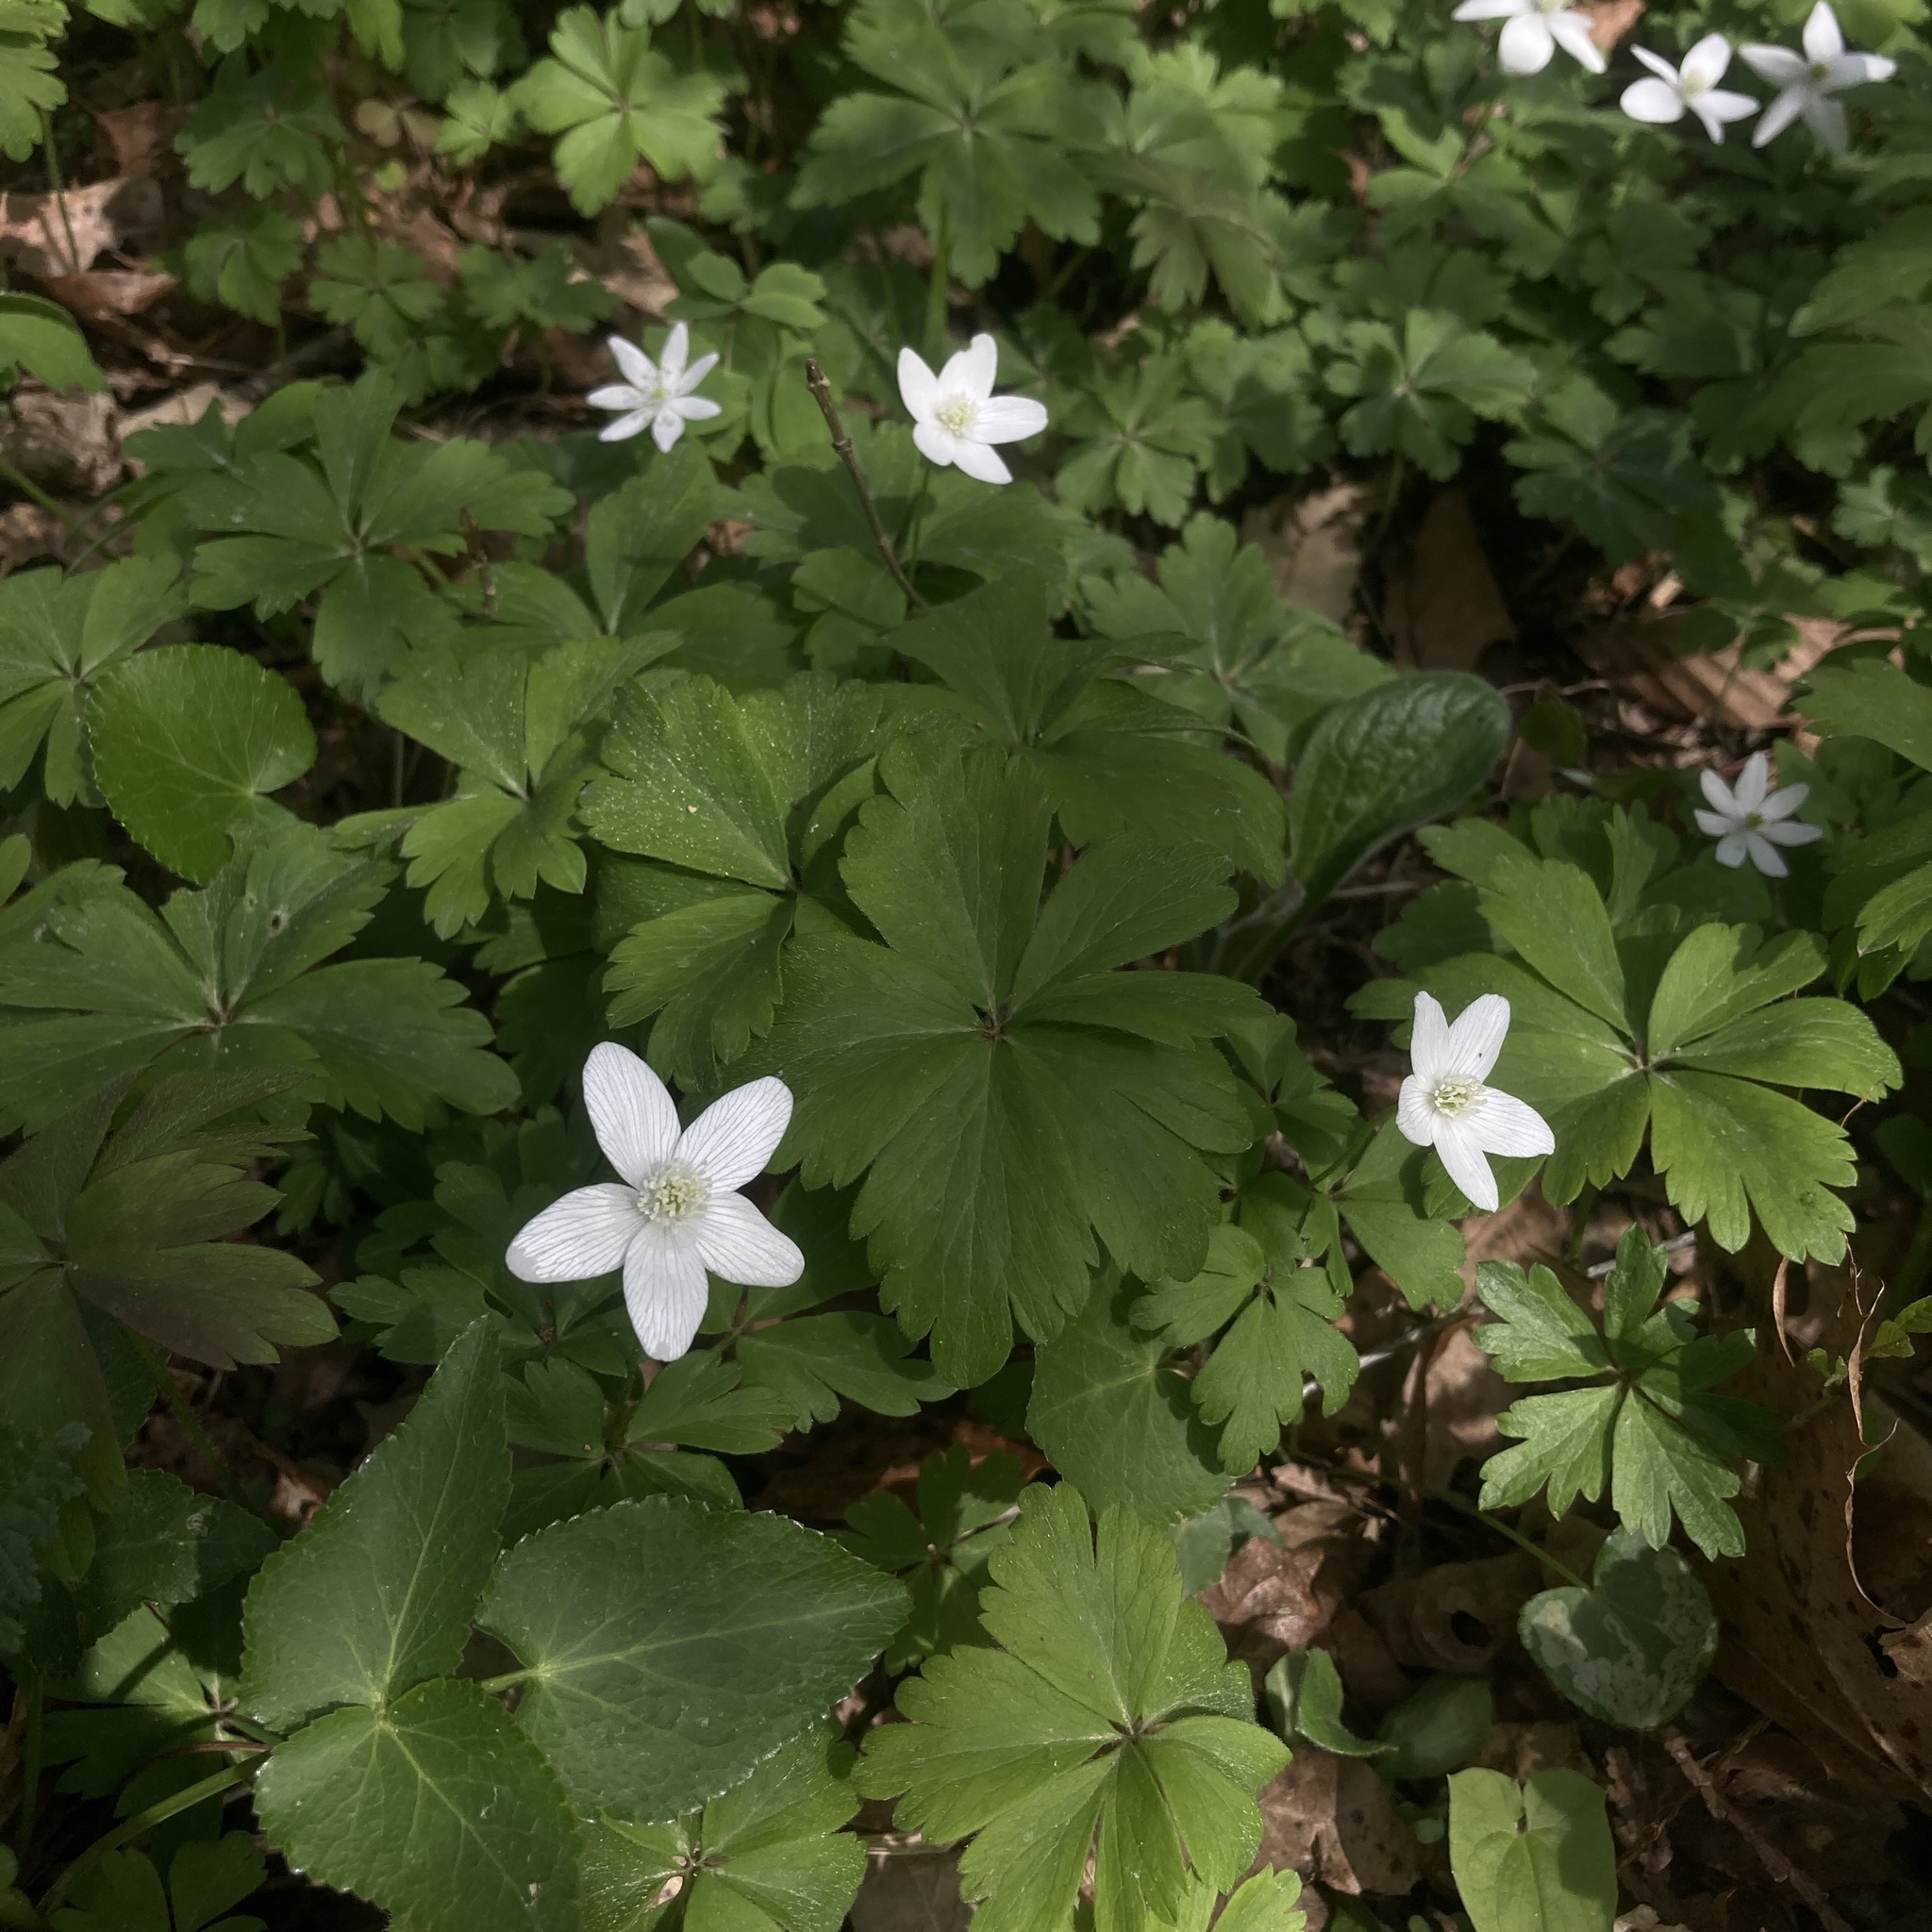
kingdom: Plantae
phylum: Tracheophyta
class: Magnoliopsida
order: Ranunculales
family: Ranunculaceae
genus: Anemone
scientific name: Anemone quinquefolia
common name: Wood anemone
